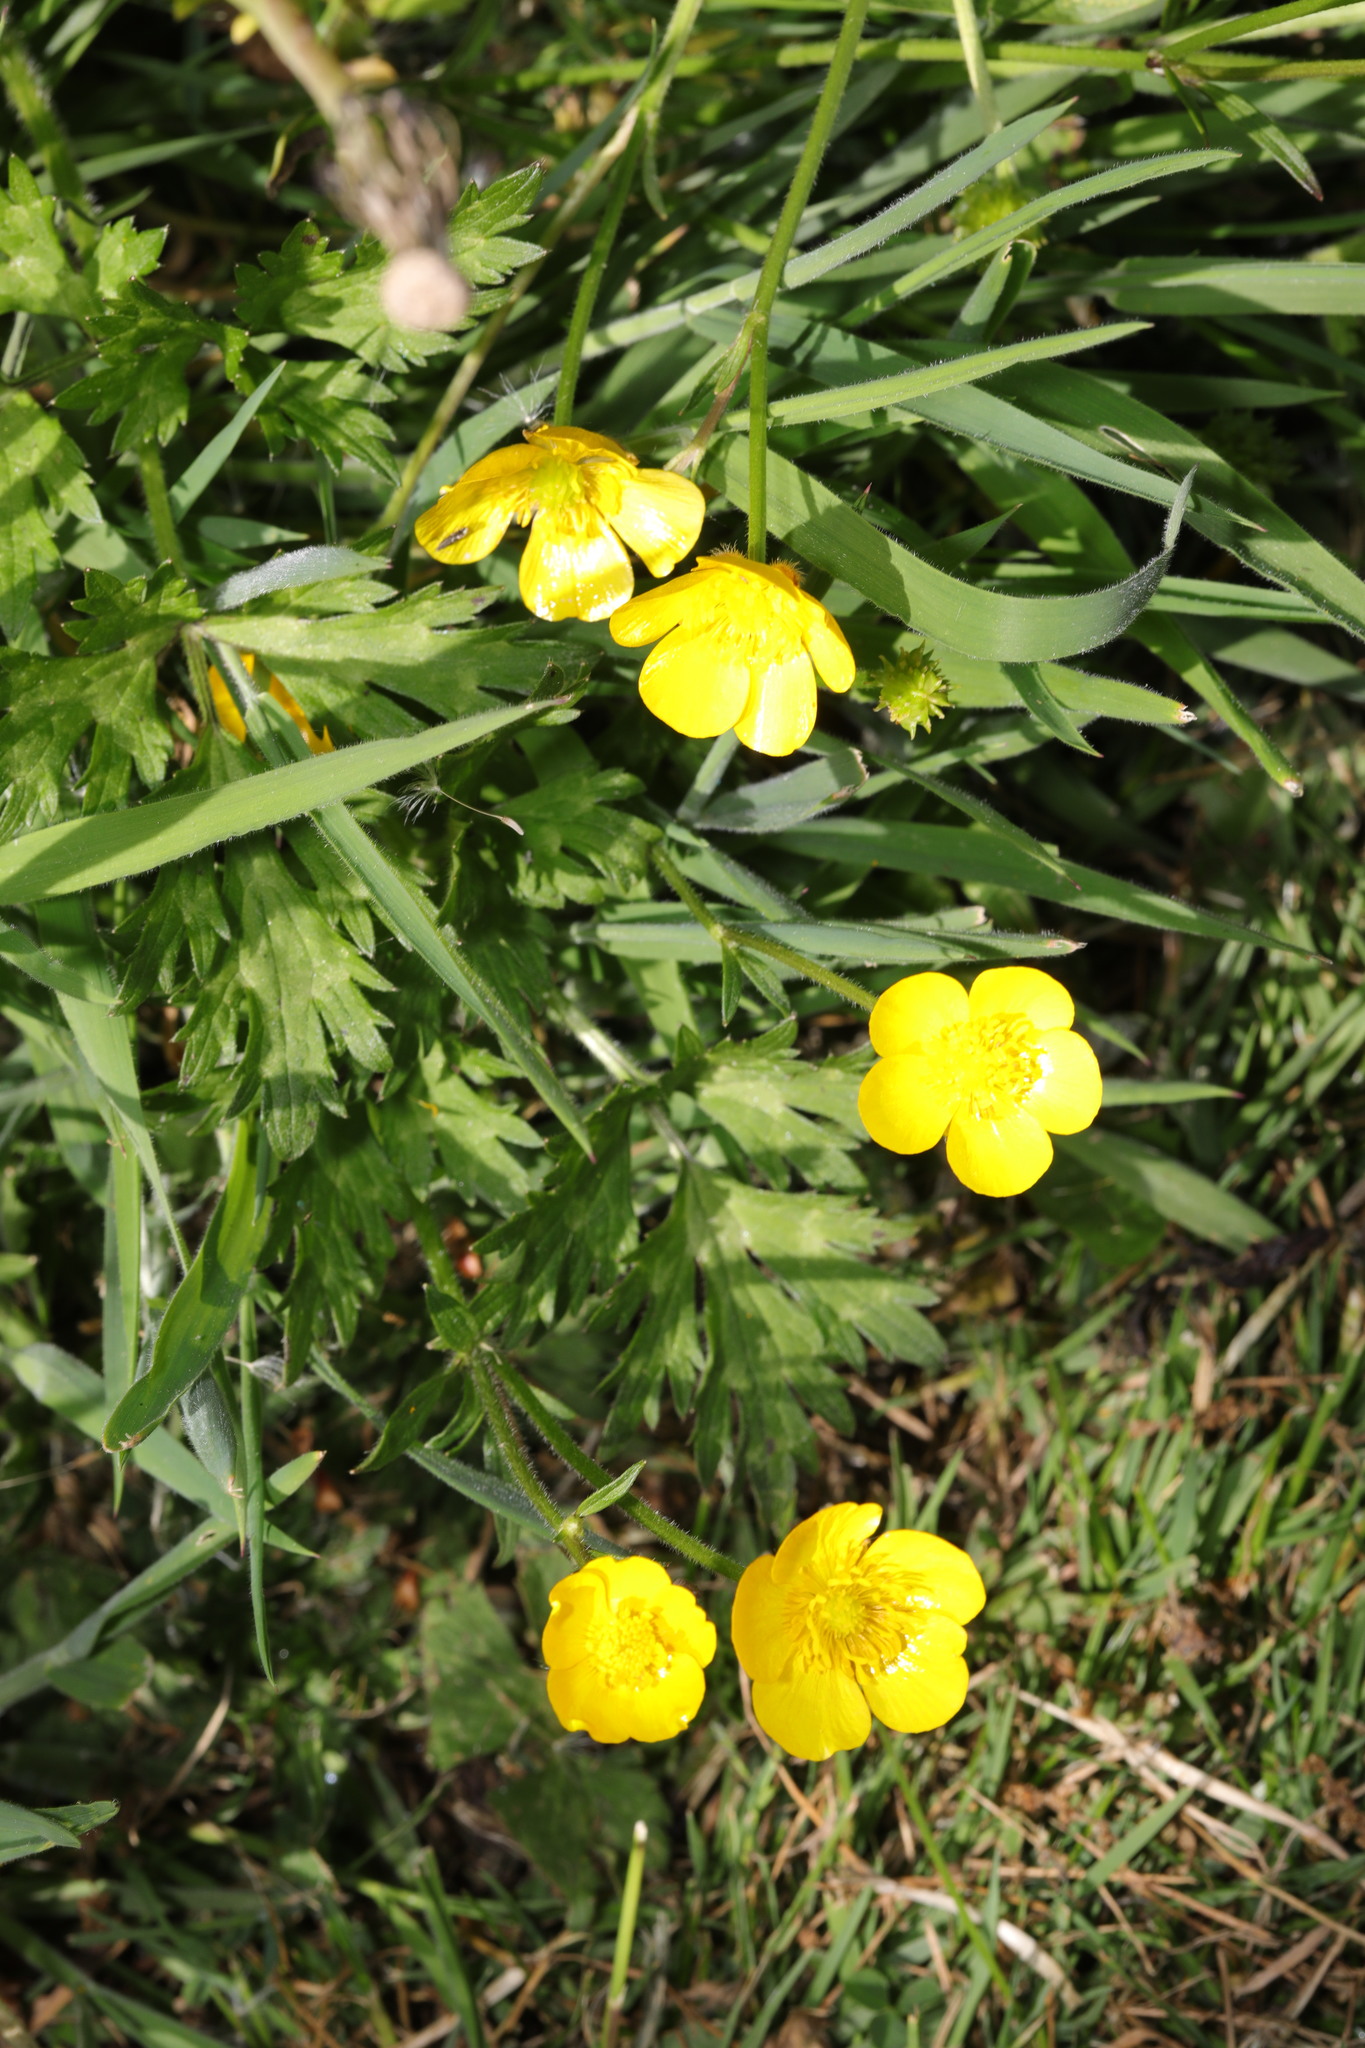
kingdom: Plantae
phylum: Tracheophyta
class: Magnoliopsida
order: Ranunculales
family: Ranunculaceae
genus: Ranunculus
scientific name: Ranunculus repens
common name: Creeping buttercup
